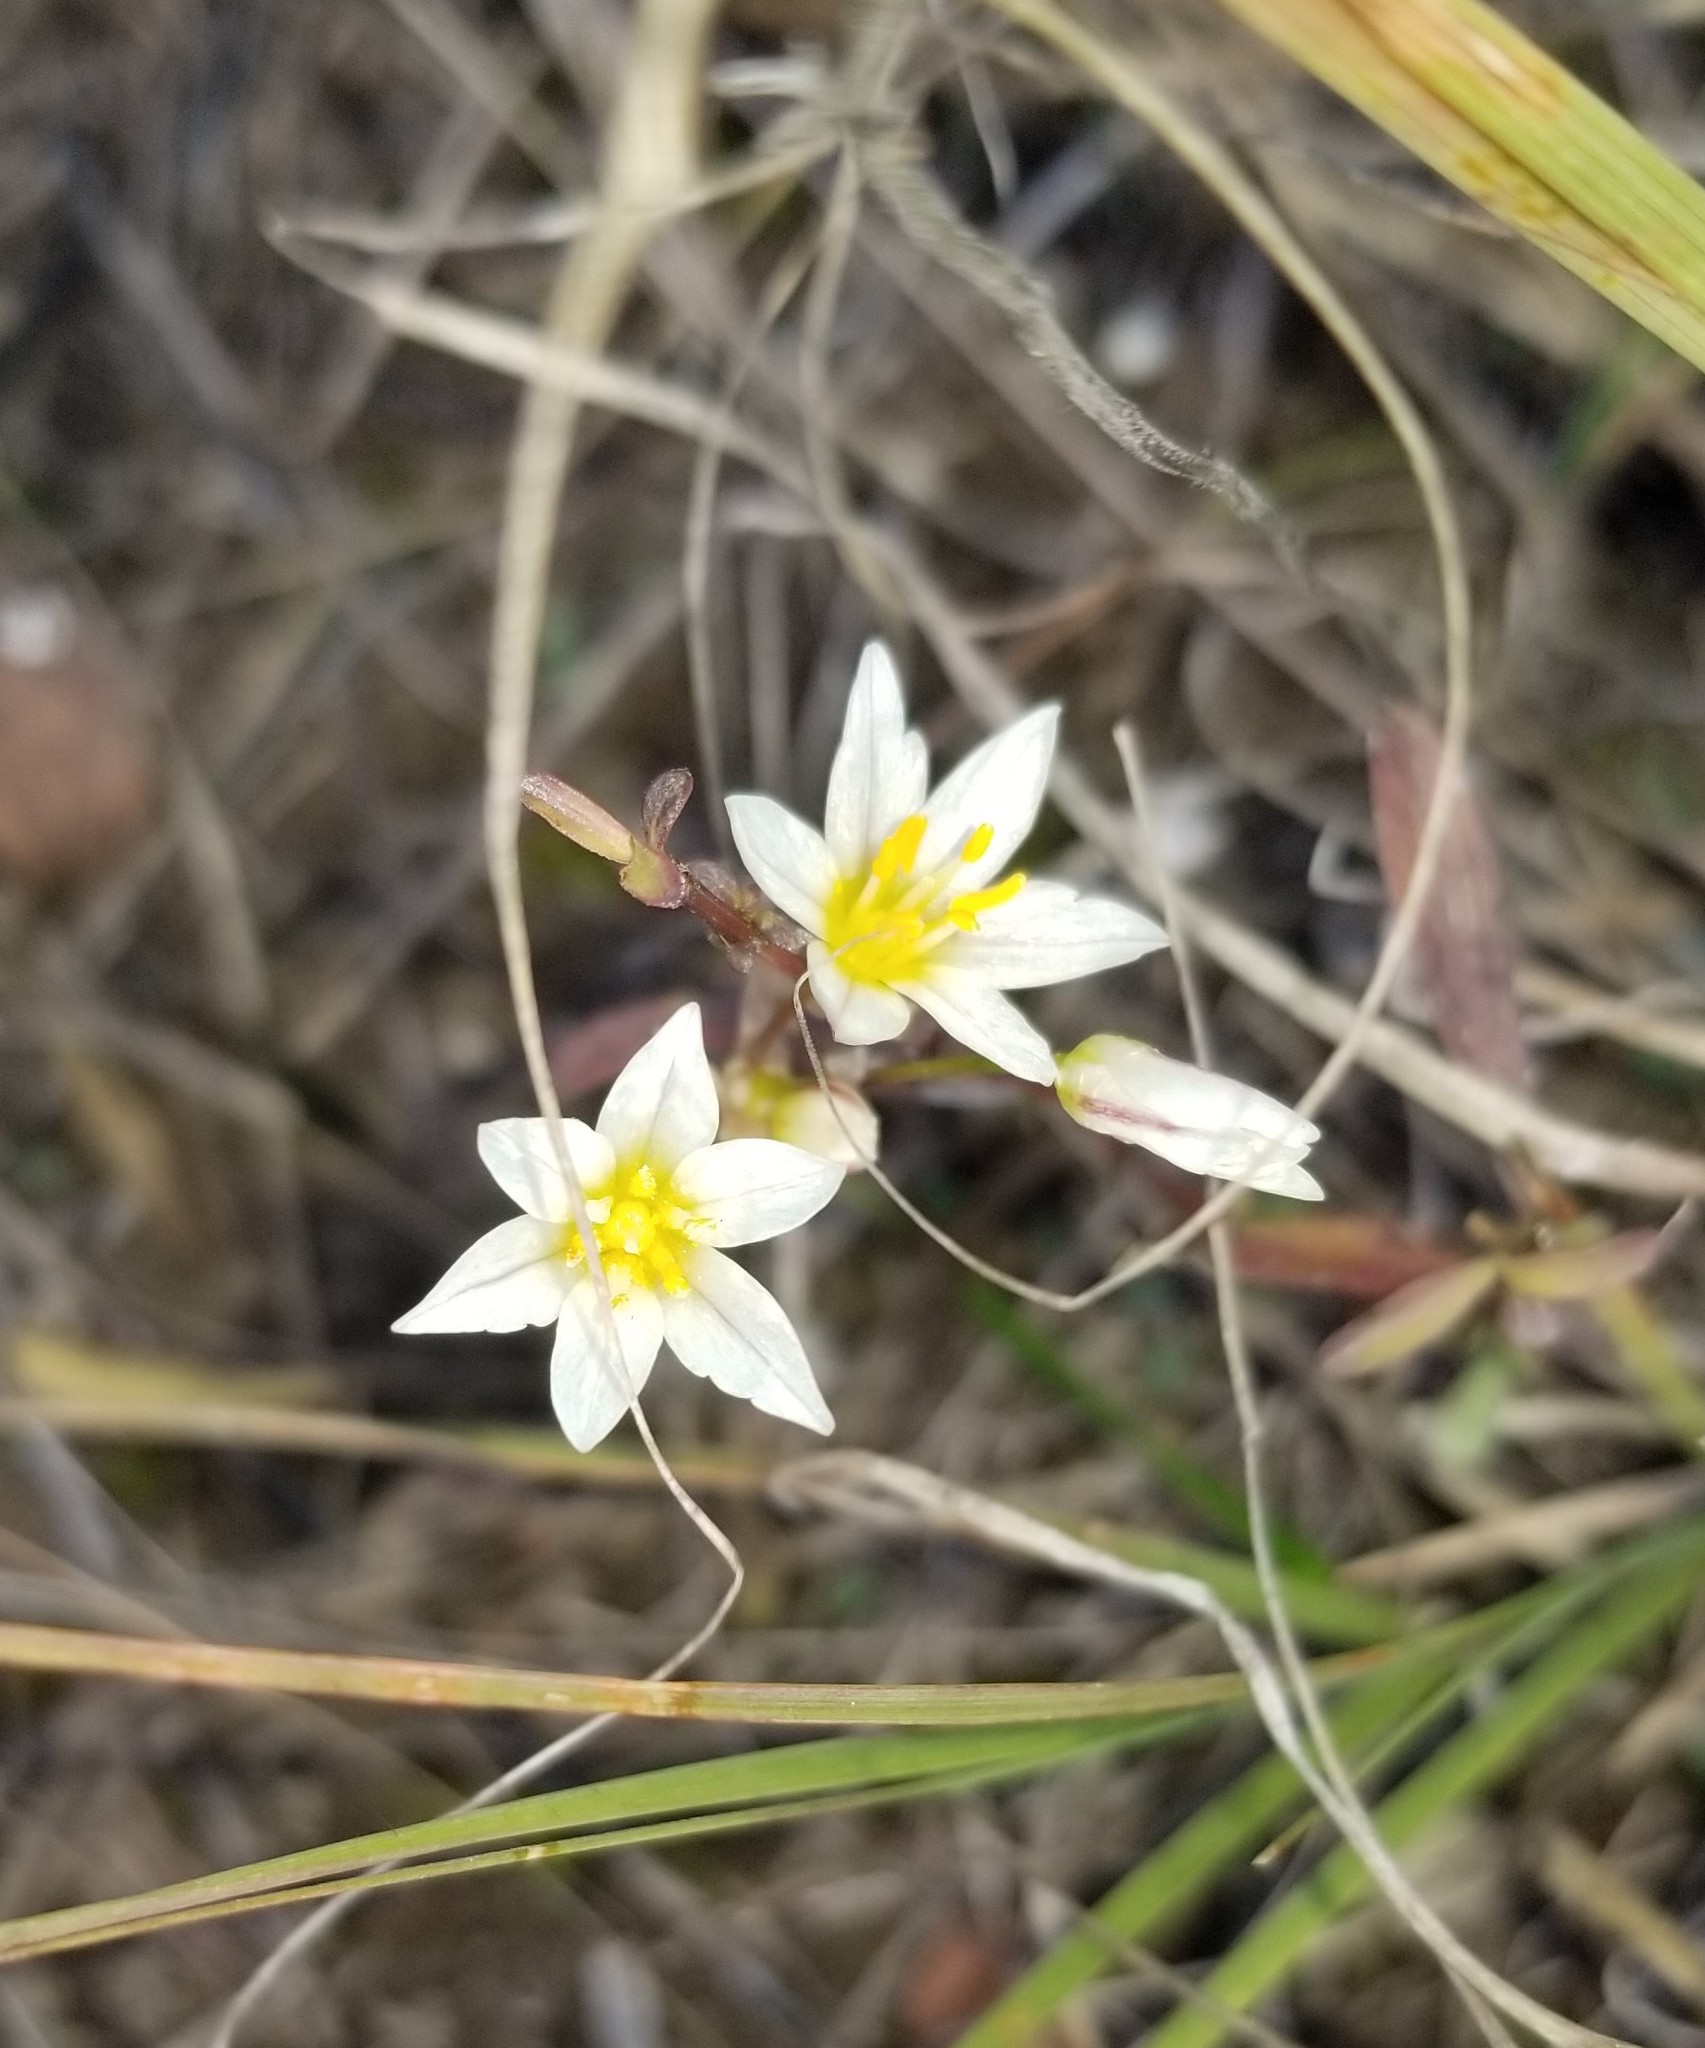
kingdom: Plantae
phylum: Tracheophyta
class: Liliopsida
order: Asparagales
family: Amaryllidaceae
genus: Nothoscordum
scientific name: Nothoscordum bivalve
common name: Crow-poison
